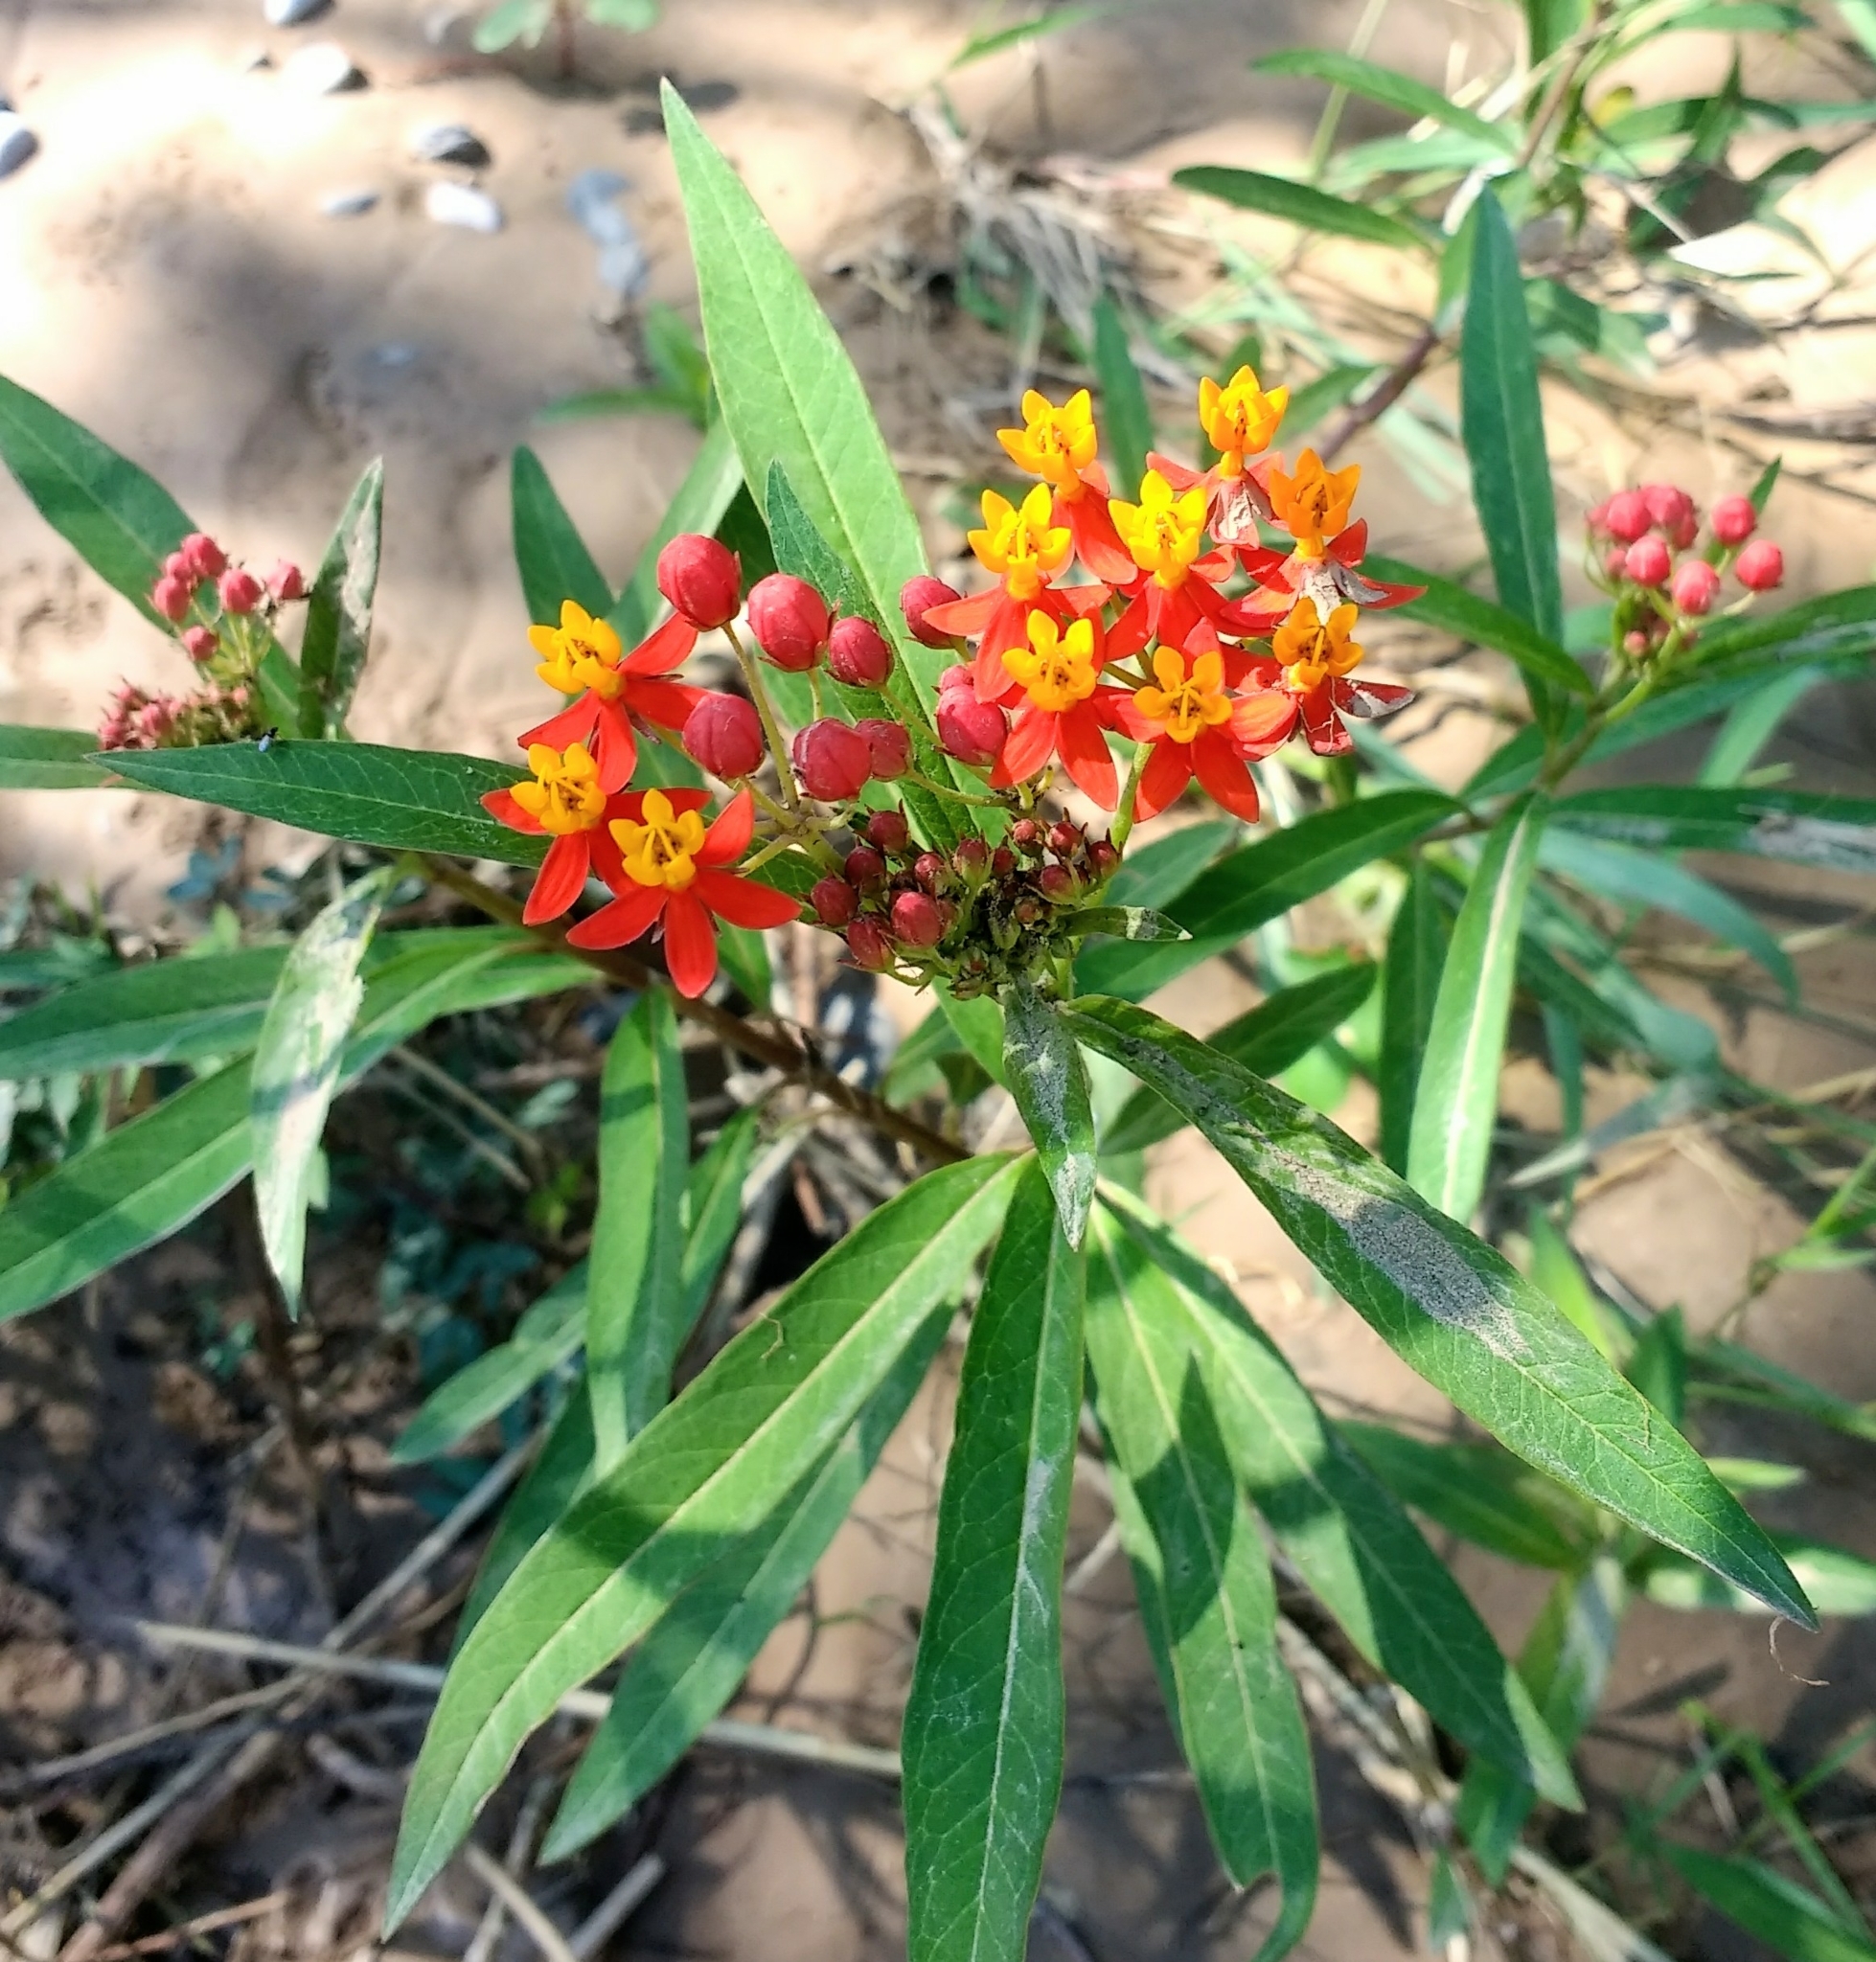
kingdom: Plantae
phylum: Tracheophyta
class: Magnoliopsida
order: Gentianales
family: Apocynaceae
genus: Asclepias
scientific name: Asclepias curassavica
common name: Bloodflower
